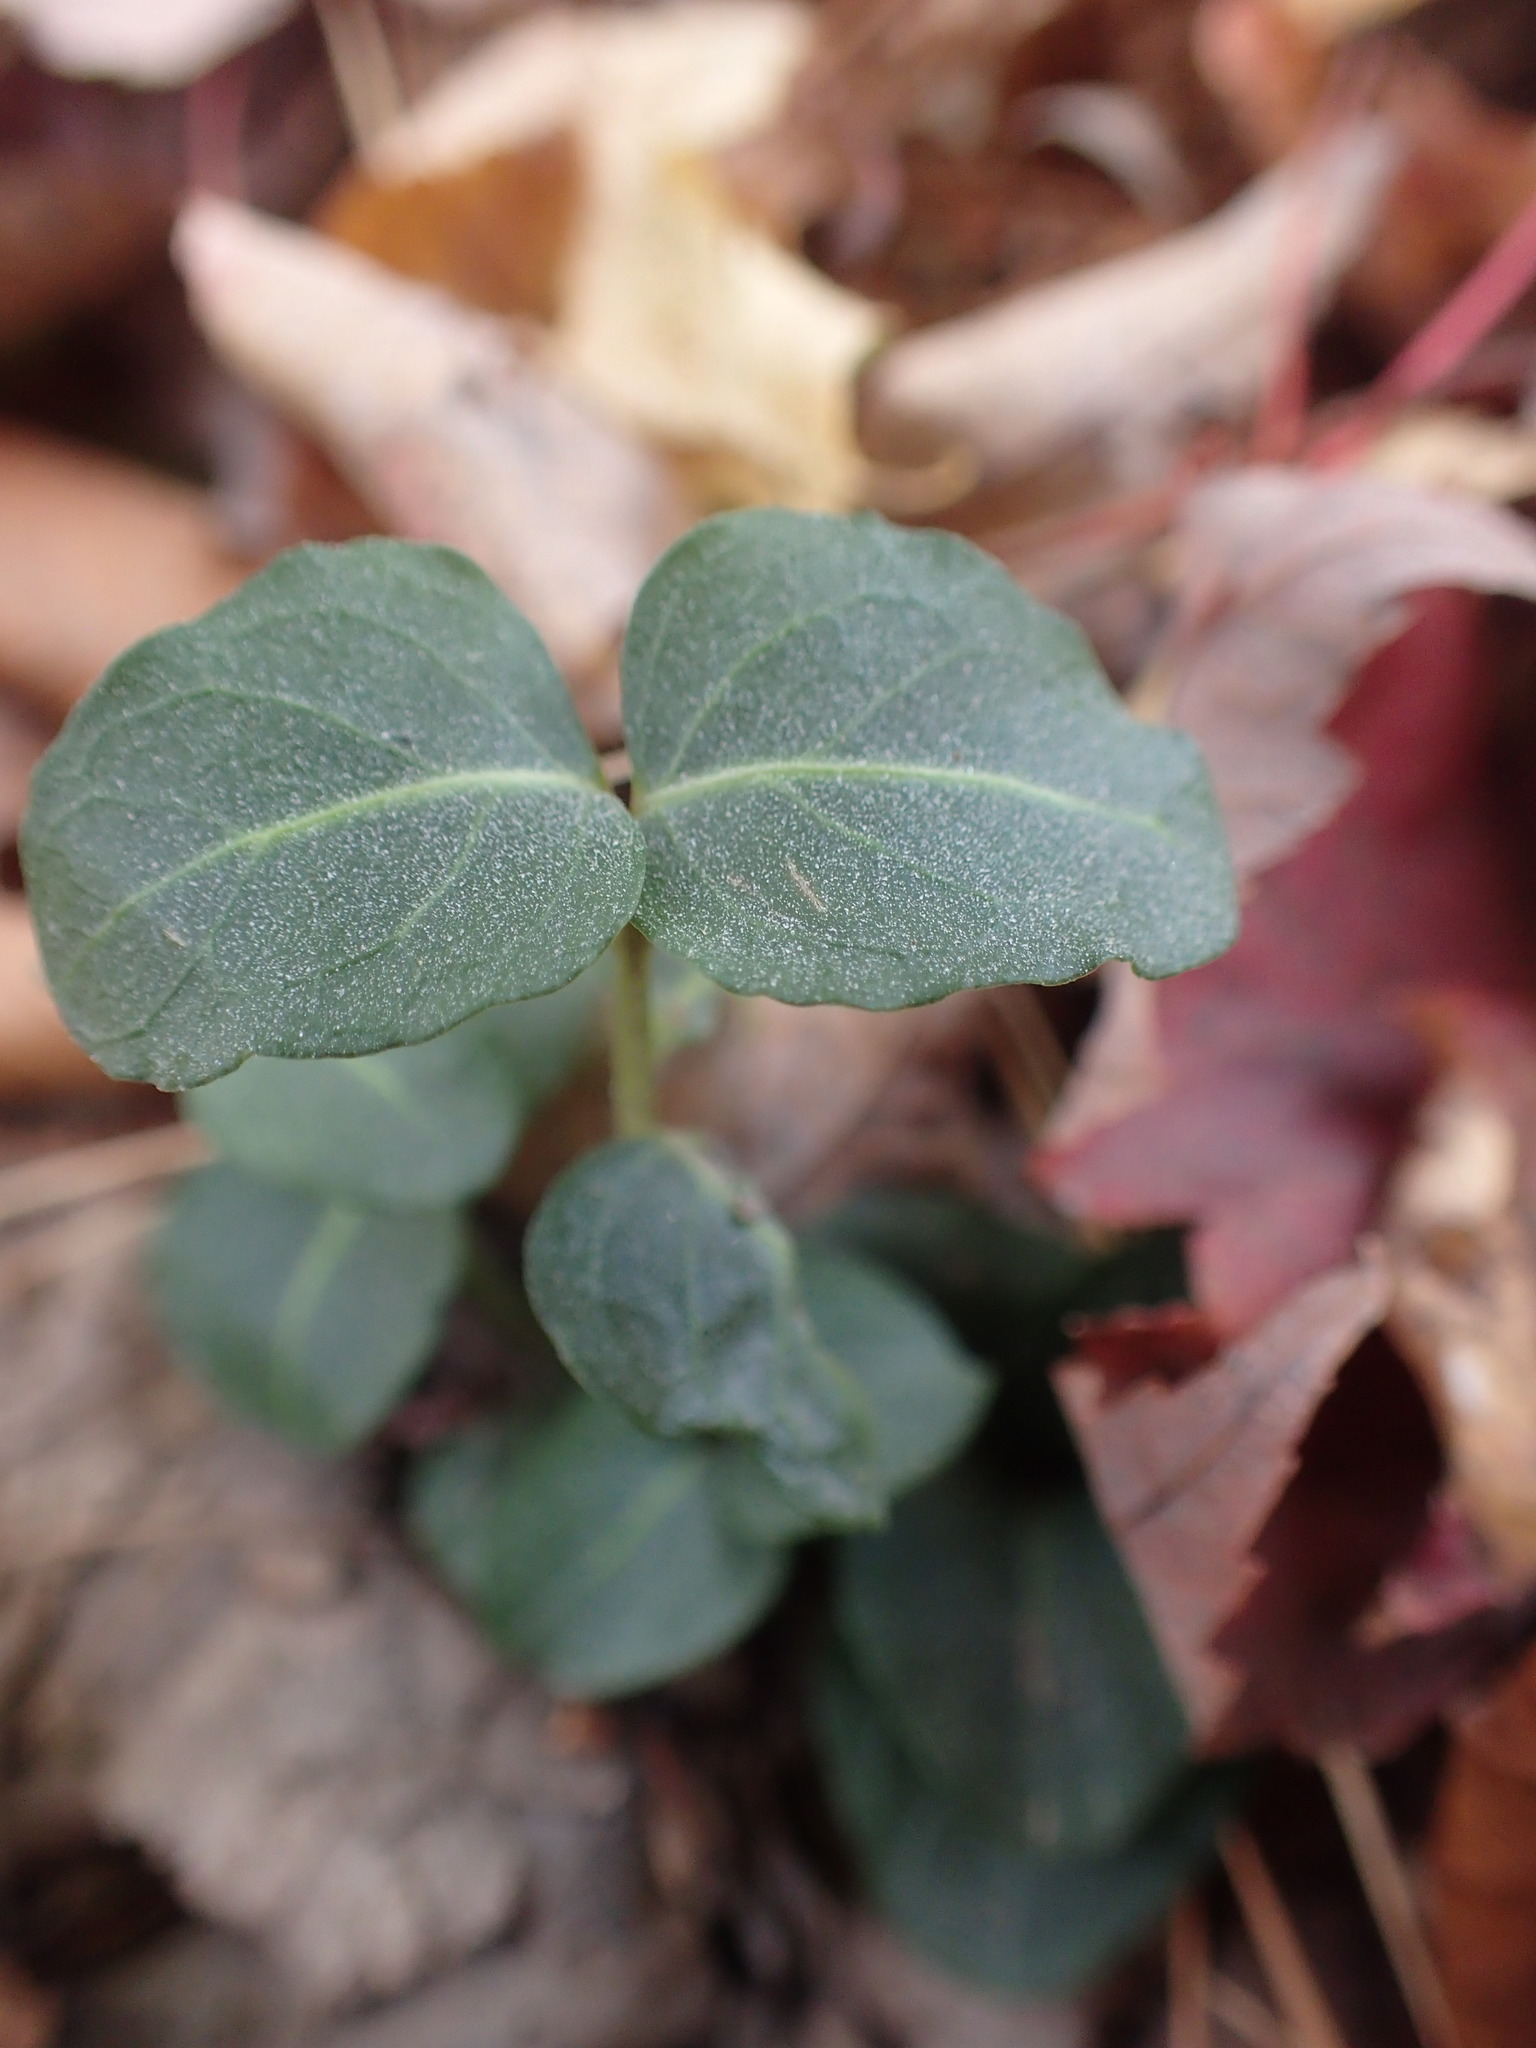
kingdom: Plantae
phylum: Tracheophyta
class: Magnoliopsida
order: Gentianales
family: Rubiaceae
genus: Mitchella
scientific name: Mitchella repens
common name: Partridge-berry
